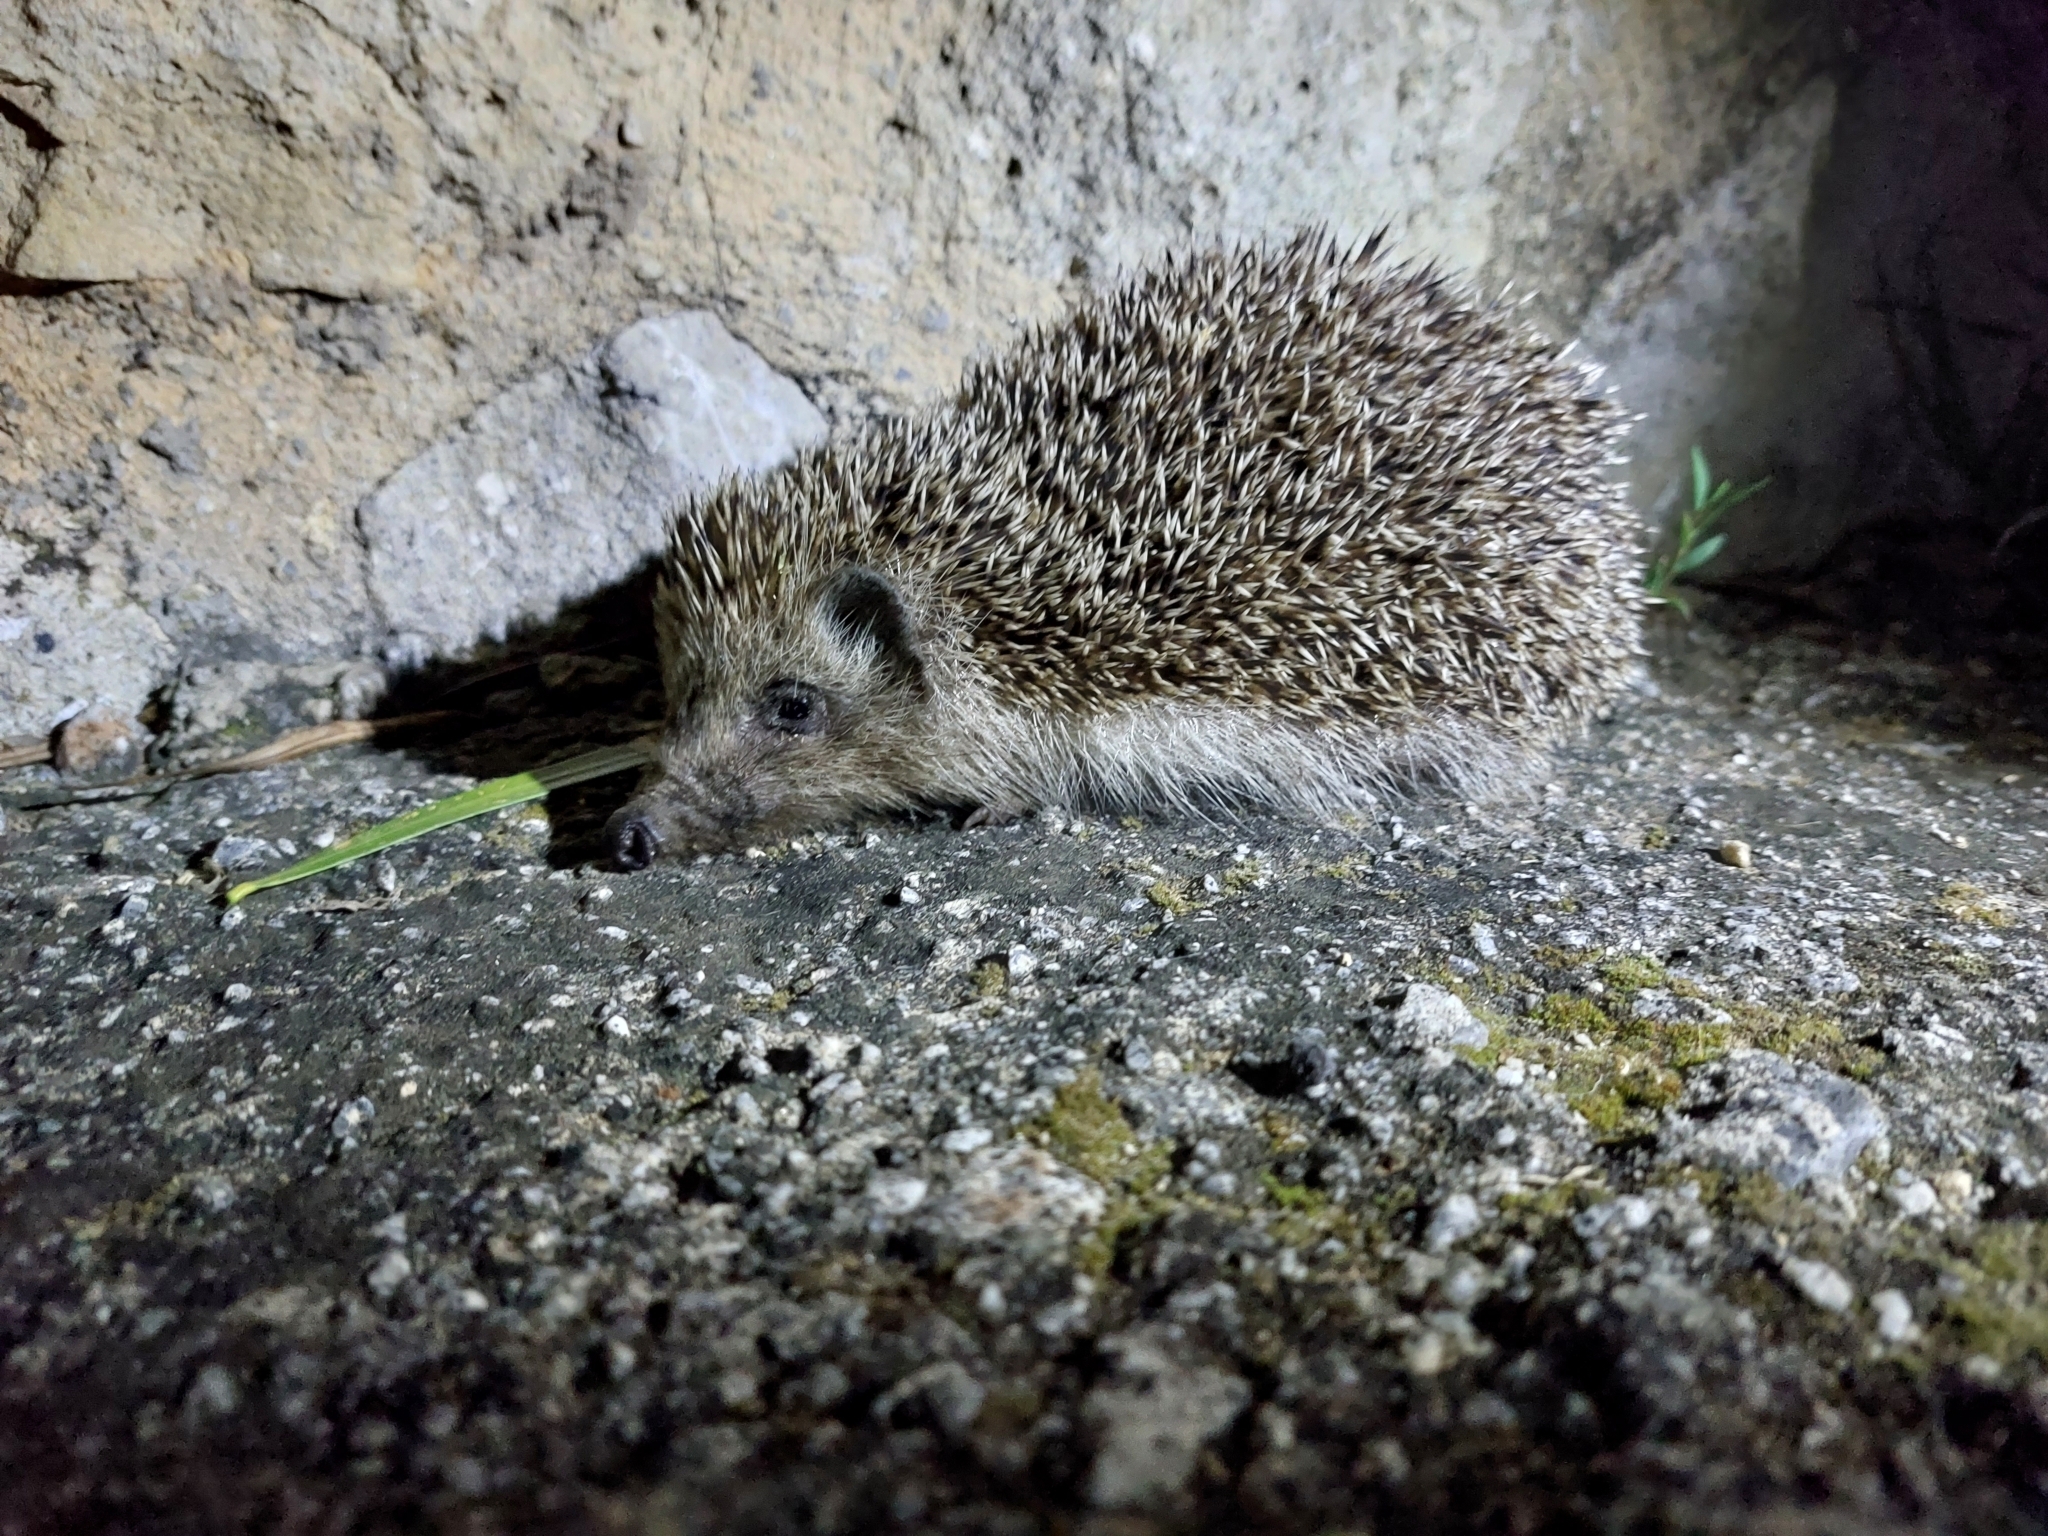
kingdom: Animalia
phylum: Chordata
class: Mammalia
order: Erinaceomorpha
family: Erinaceidae
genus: Erinaceus
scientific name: Erinaceus roumanicus
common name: Northern white-breasted hedgehog
